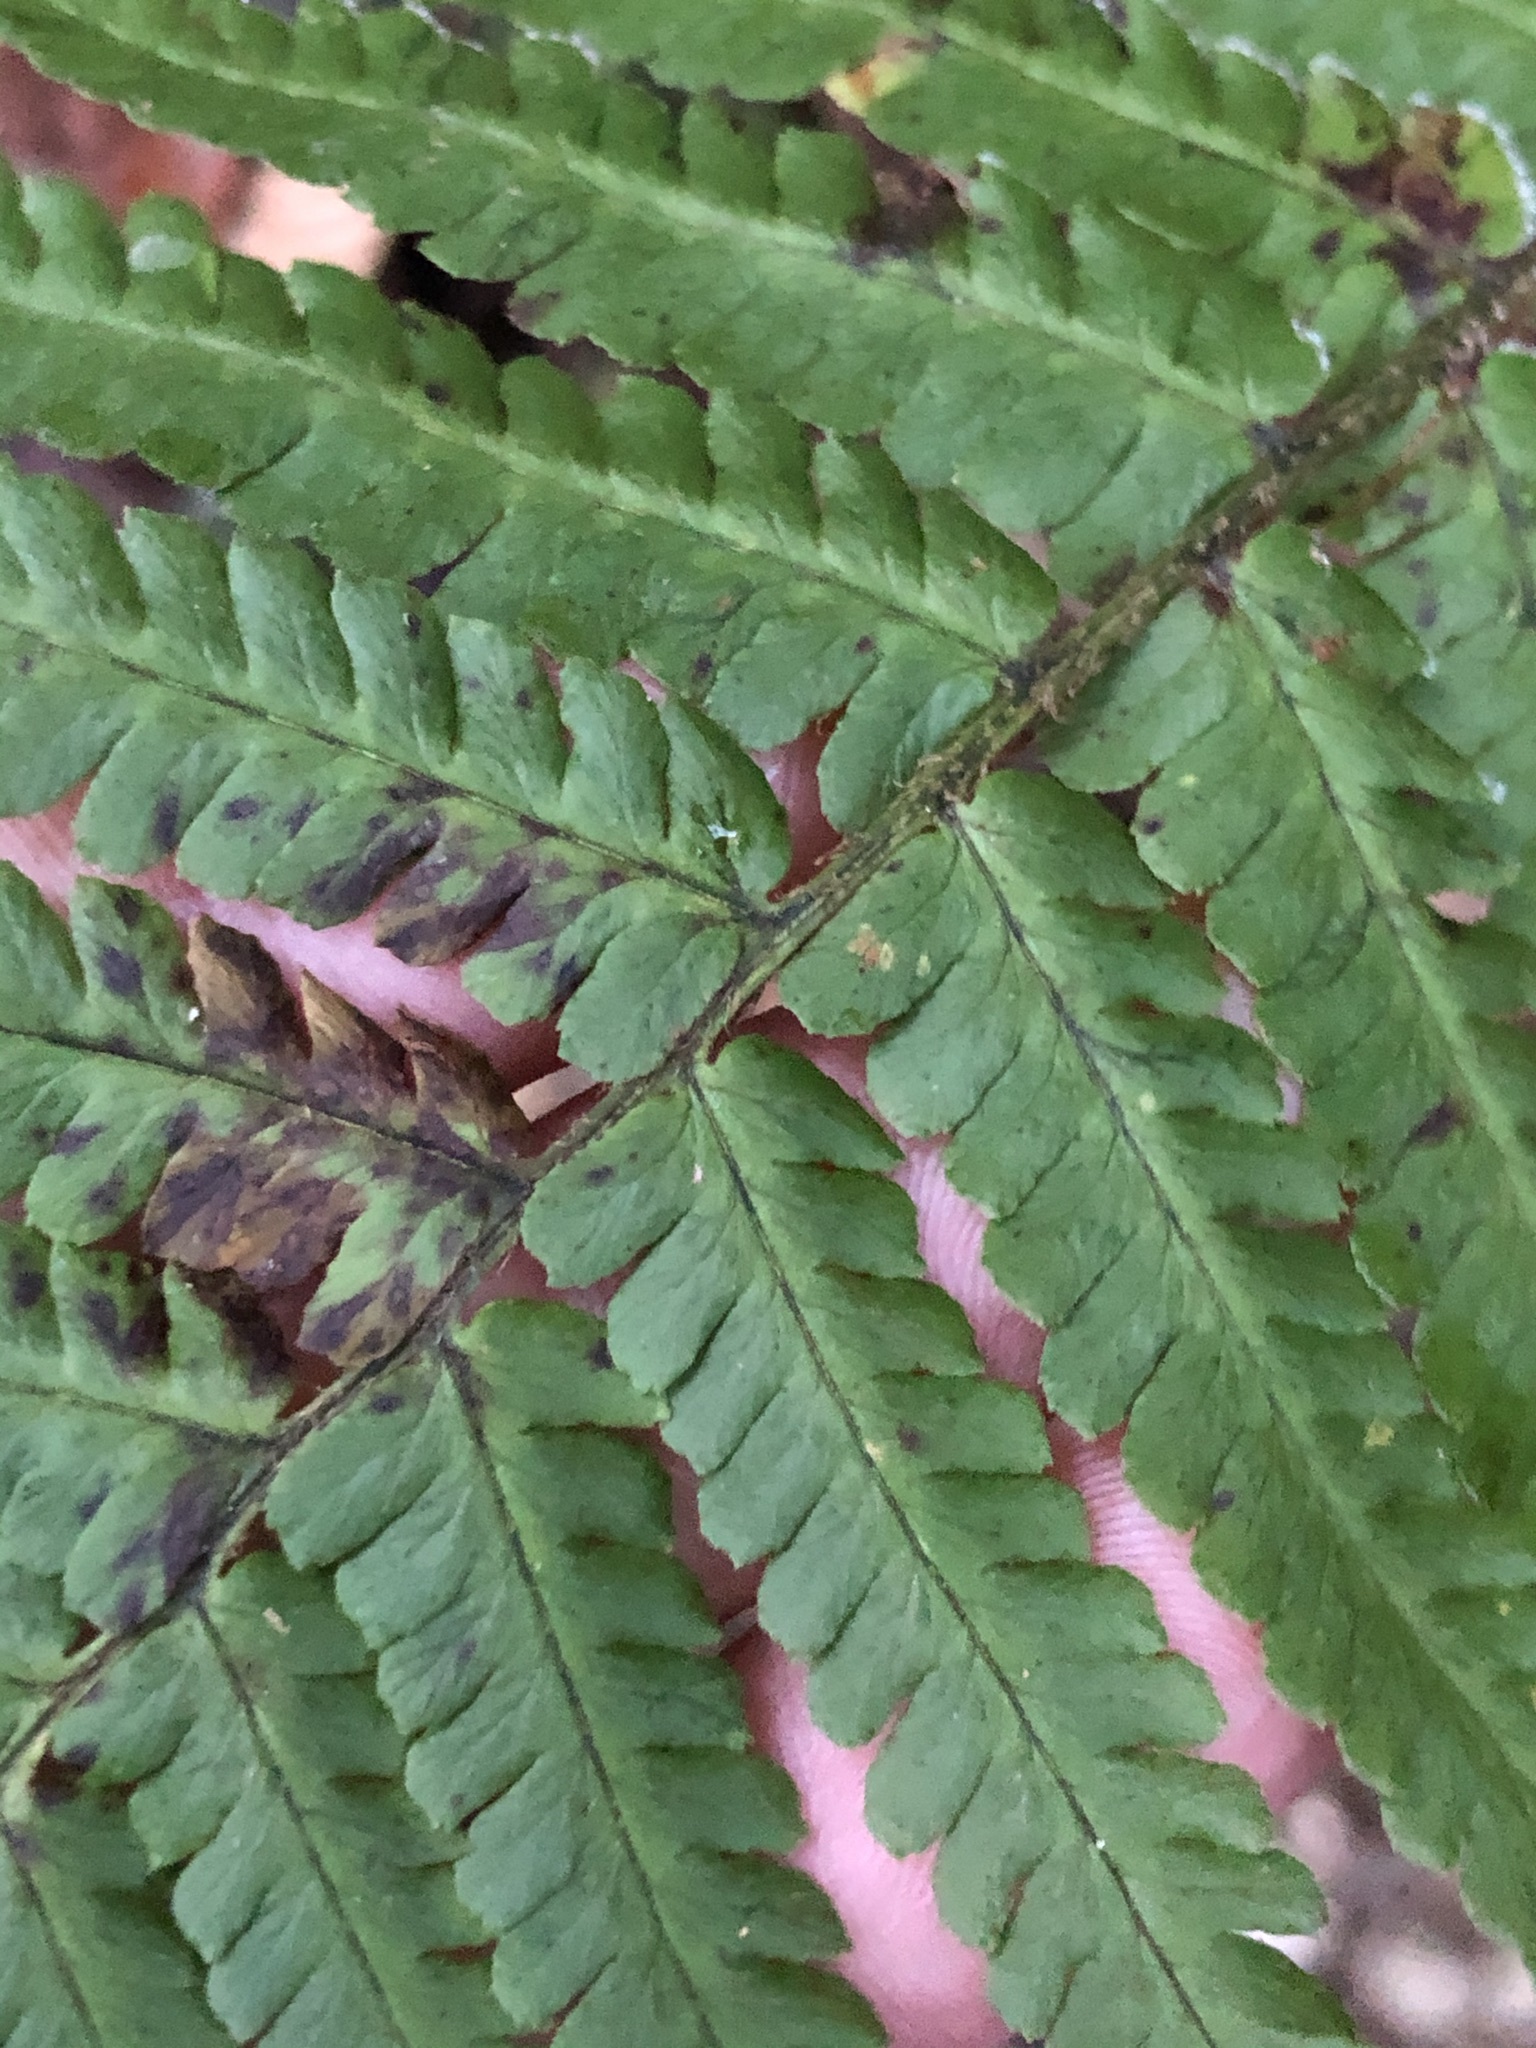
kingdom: Plantae
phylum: Tracheophyta
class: Polypodiopsida
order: Polypodiales
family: Dryopteridaceae
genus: Dryopteris
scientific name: Dryopteris borreri
